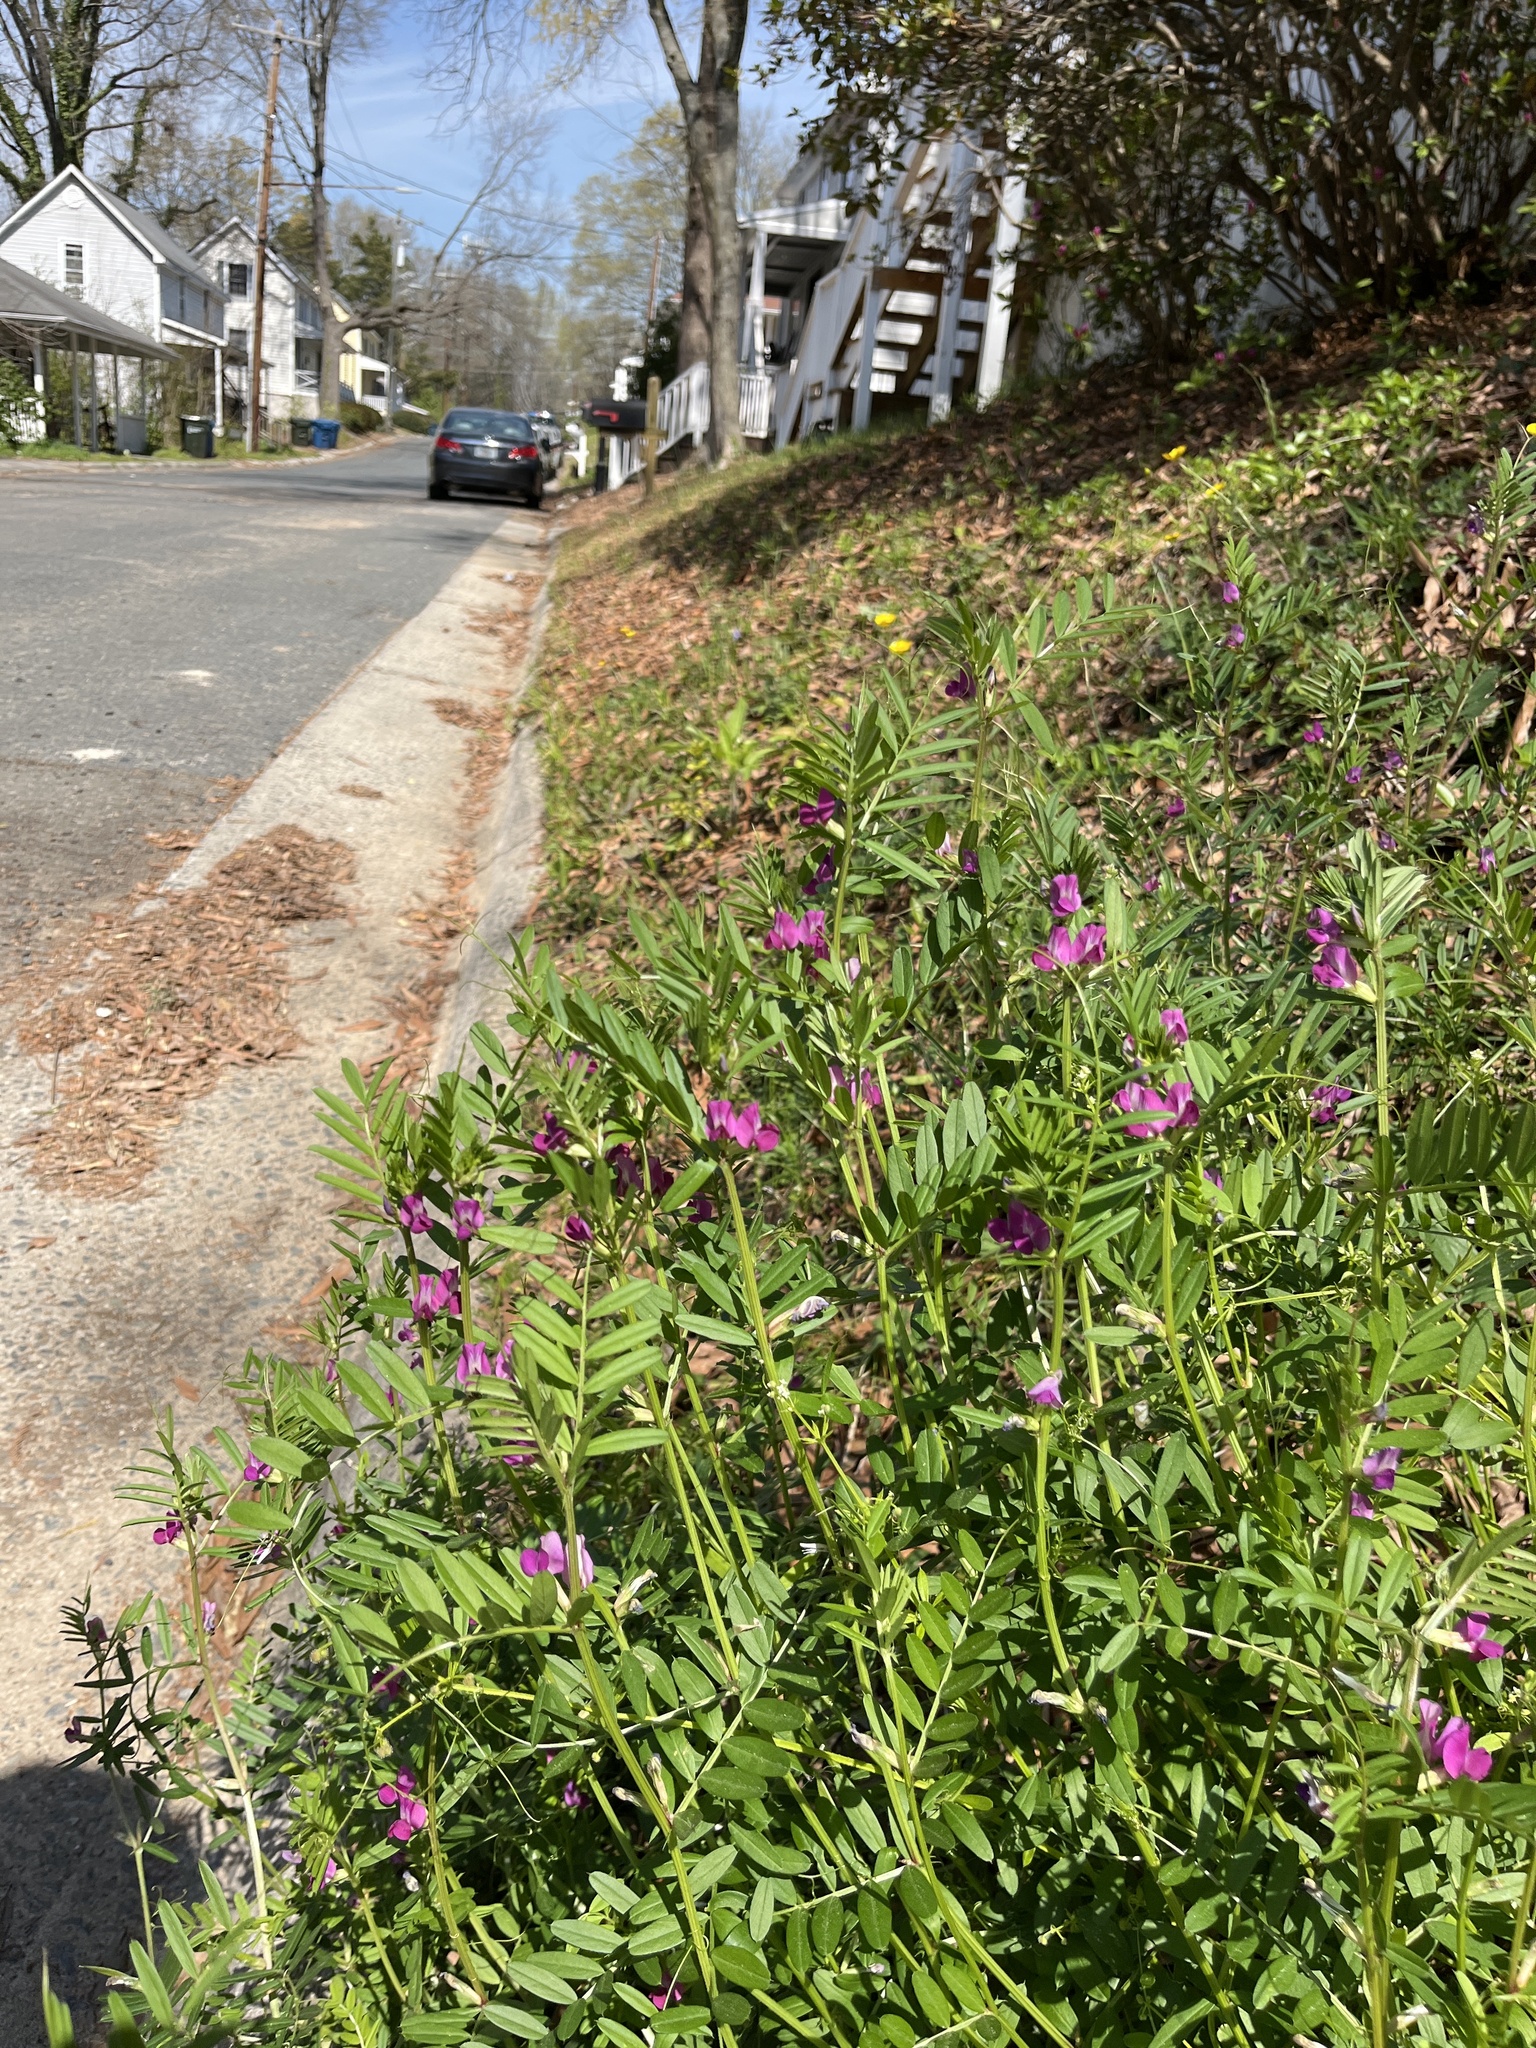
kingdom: Plantae
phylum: Tracheophyta
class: Magnoliopsida
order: Fabales
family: Fabaceae
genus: Vicia
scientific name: Vicia sativa
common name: Garden vetch
